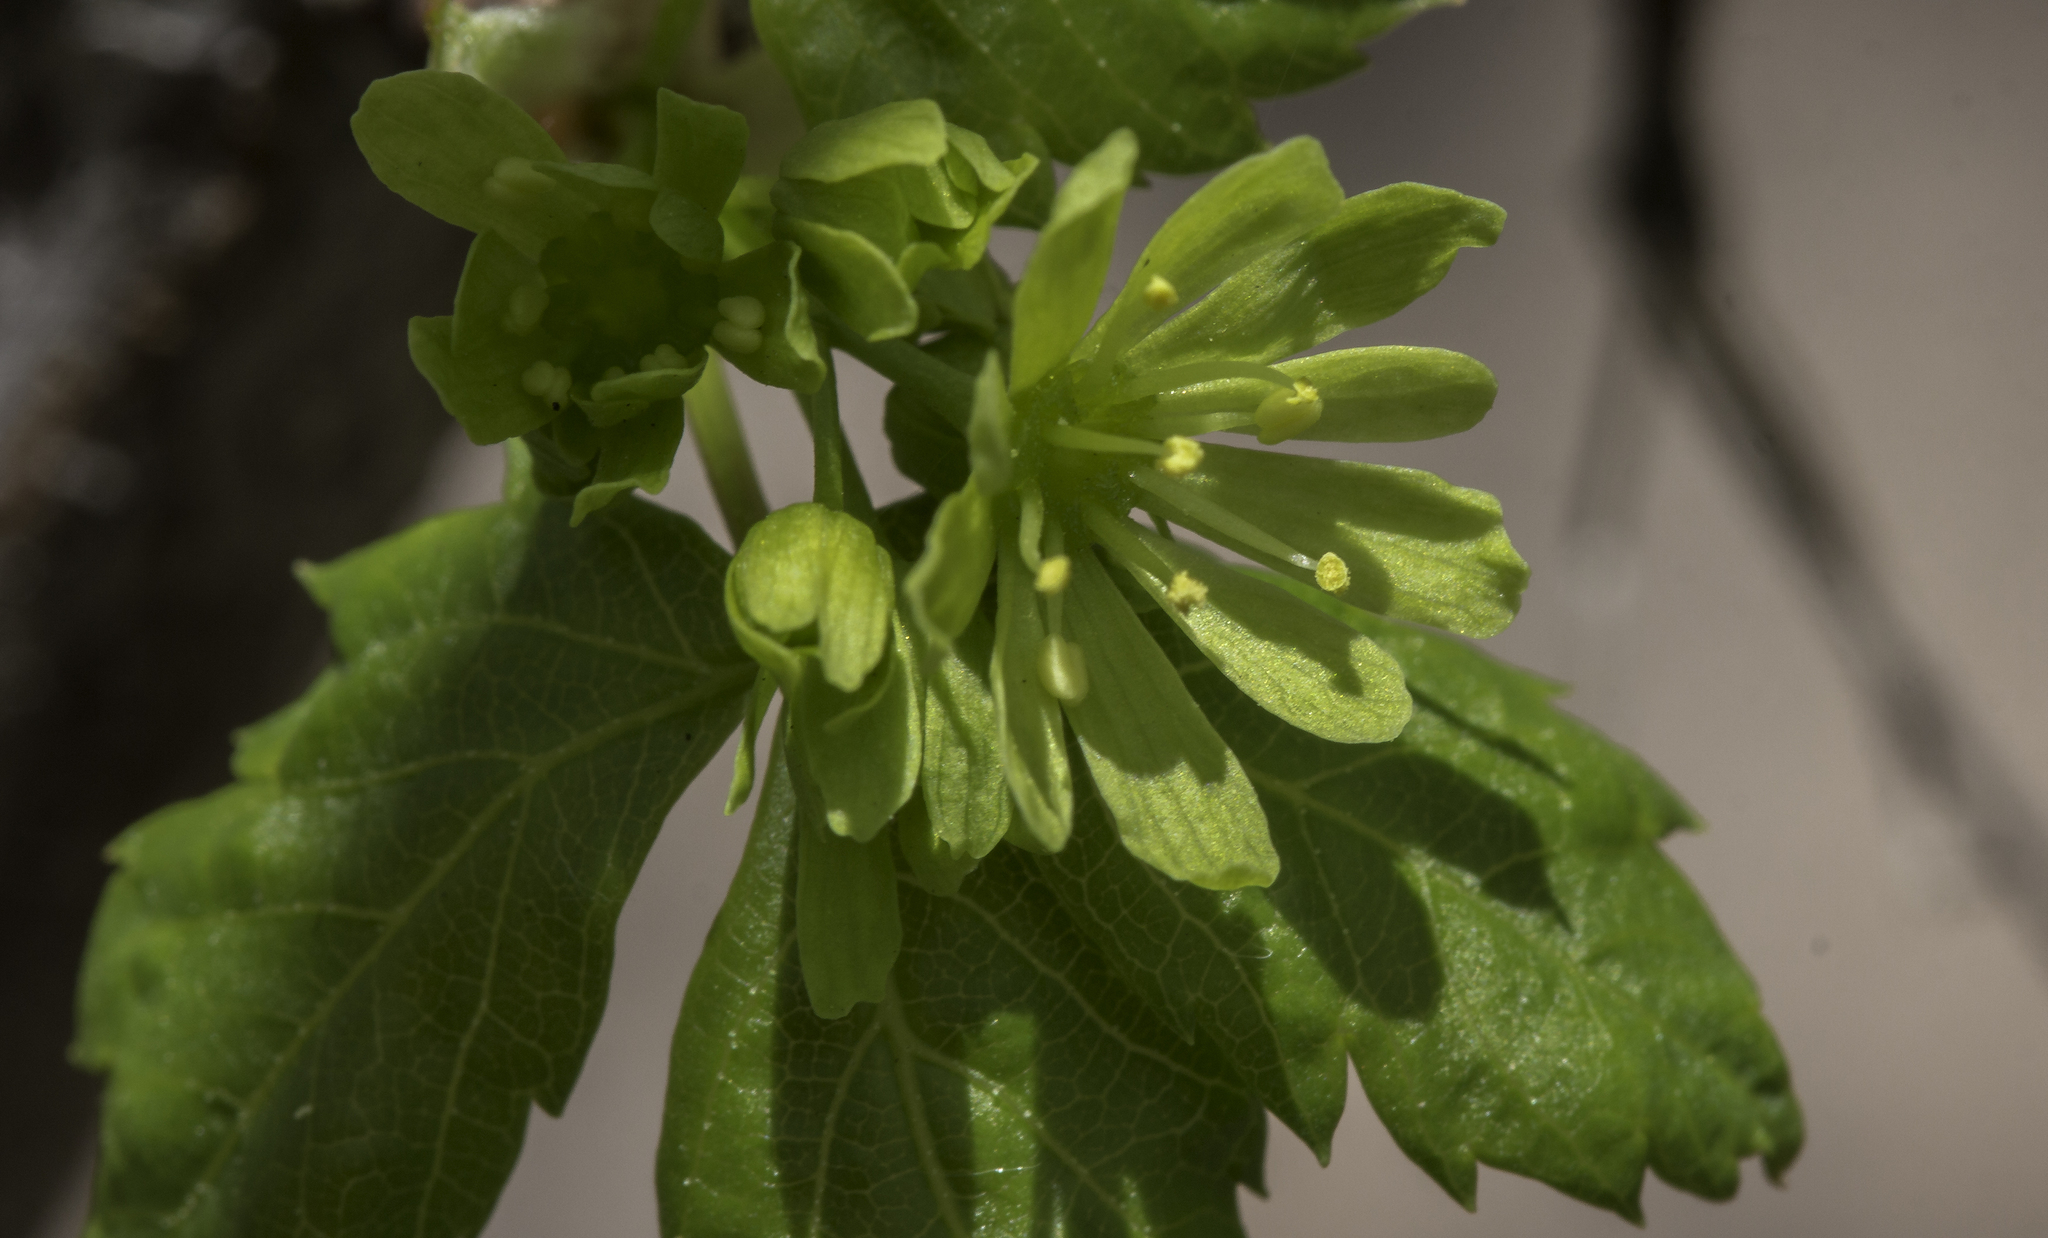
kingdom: Plantae
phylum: Tracheophyta
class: Magnoliopsida
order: Sapindales
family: Sapindaceae
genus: Acer
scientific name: Acer glabrum
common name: Rocky mountain maple
